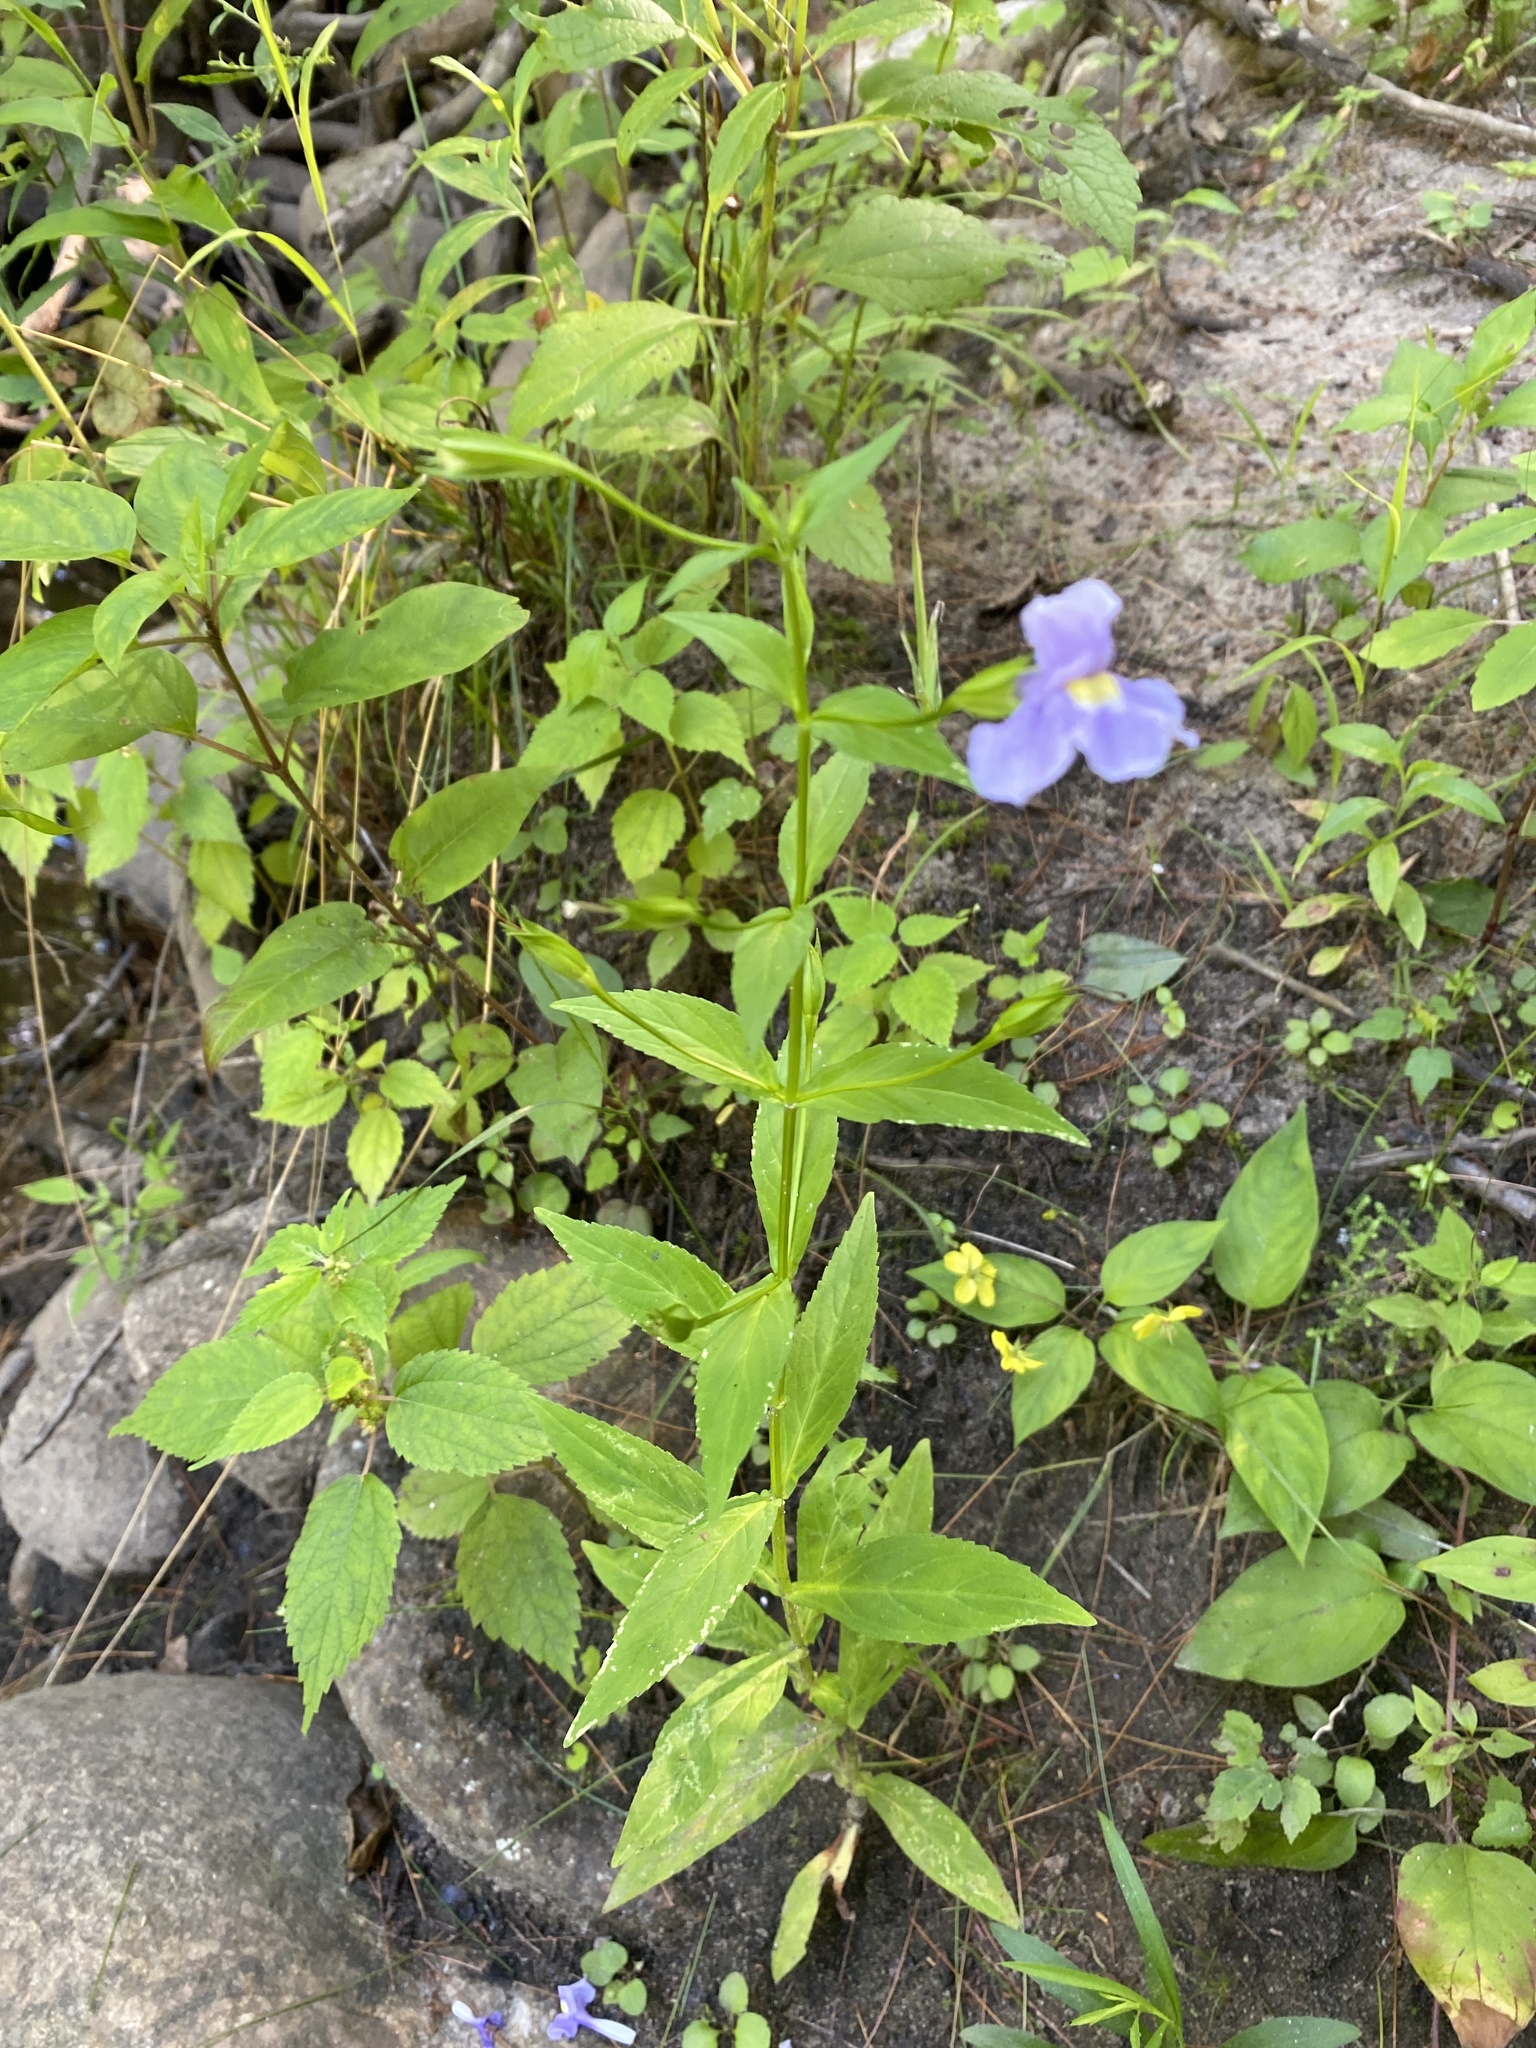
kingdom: Plantae
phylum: Tracheophyta
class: Magnoliopsida
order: Lamiales
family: Phrymaceae
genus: Mimulus
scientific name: Mimulus ringens
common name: Allegheny monkeyflower
